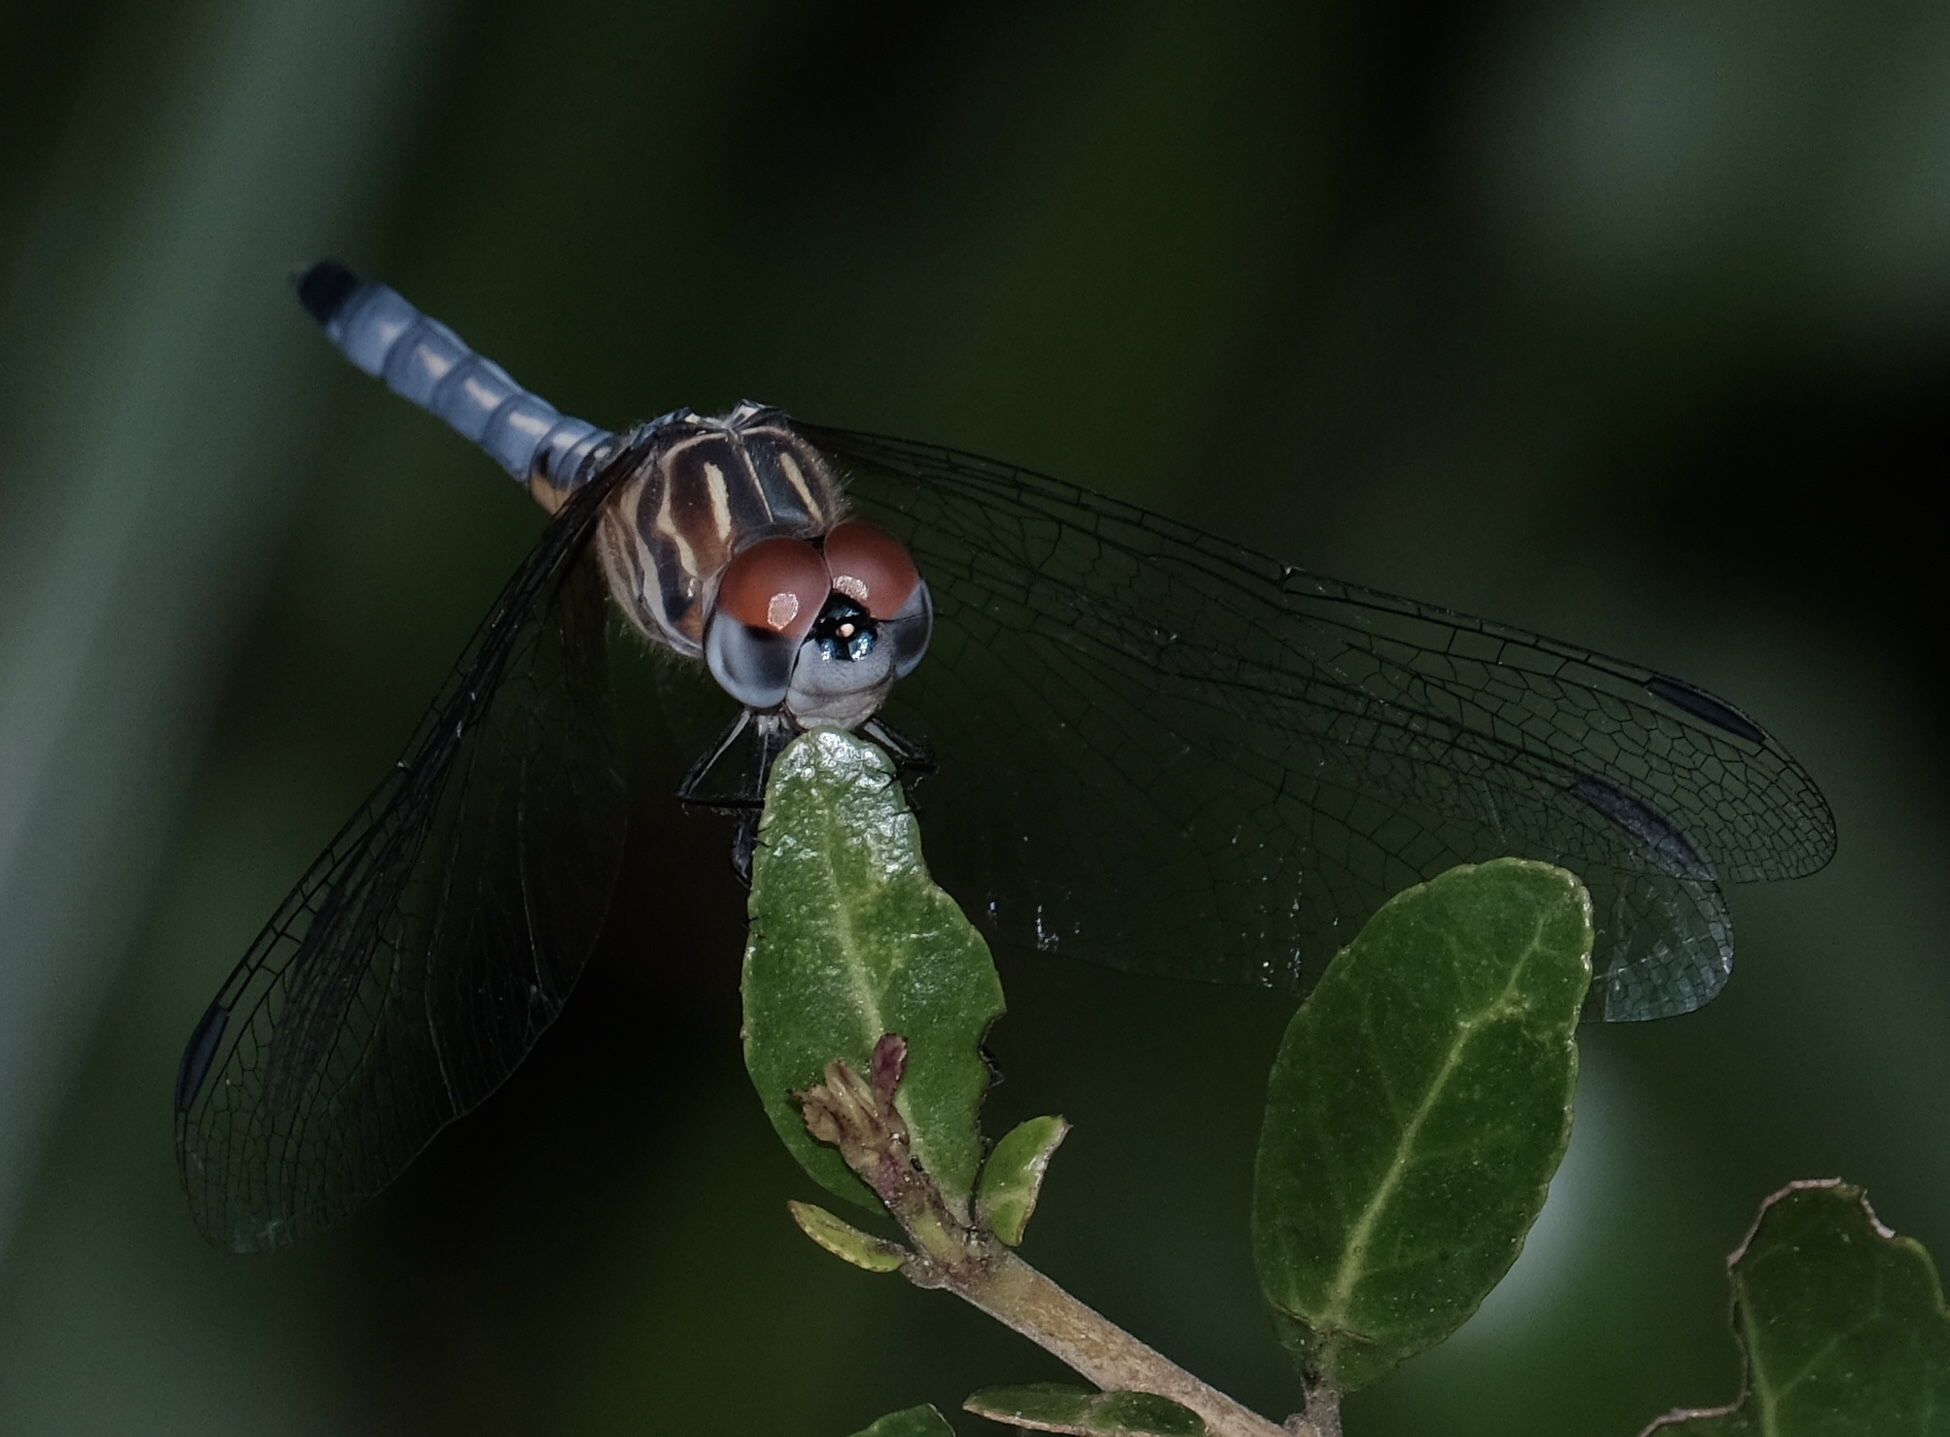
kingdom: Animalia
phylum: Arthropoda
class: Insecta
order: Odonata
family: Libellulidae
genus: Pachydiplax
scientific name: Pachydiplax longipennis
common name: Blue dasher
